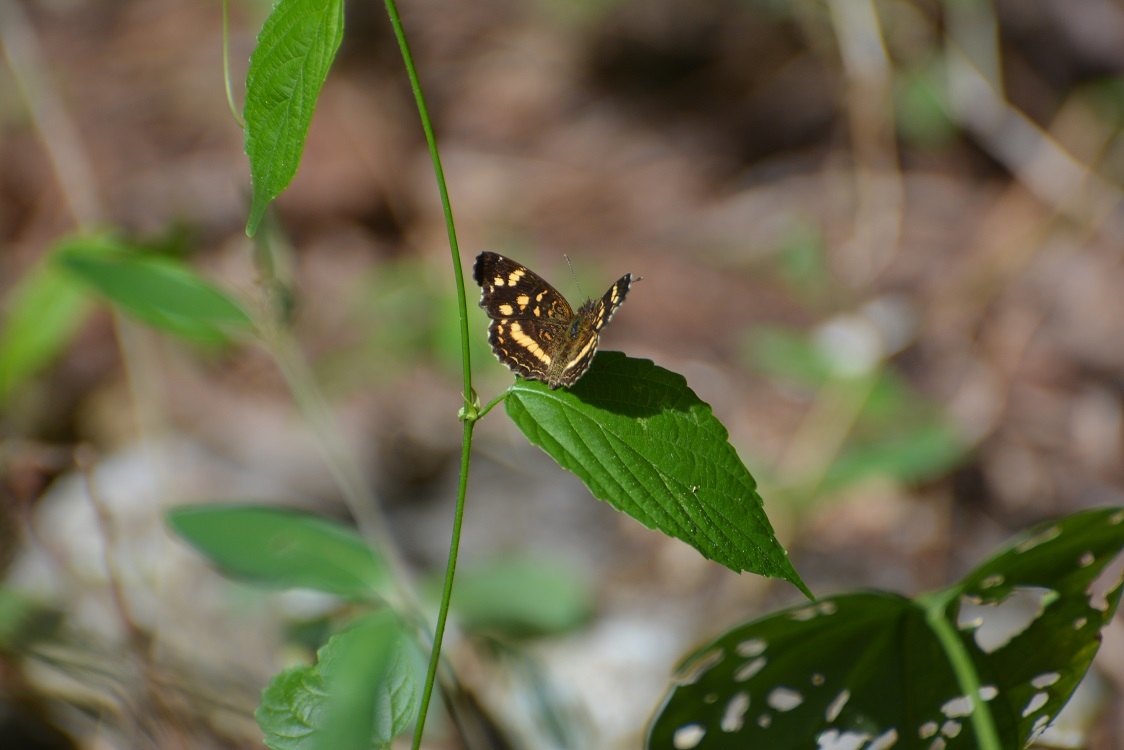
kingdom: Animalia
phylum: Arthropoda
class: Insecta
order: Lepidoptera
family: Nymphalidae
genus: Anthanassa
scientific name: Anthanassa tulcis
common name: Pale-banded crescent
